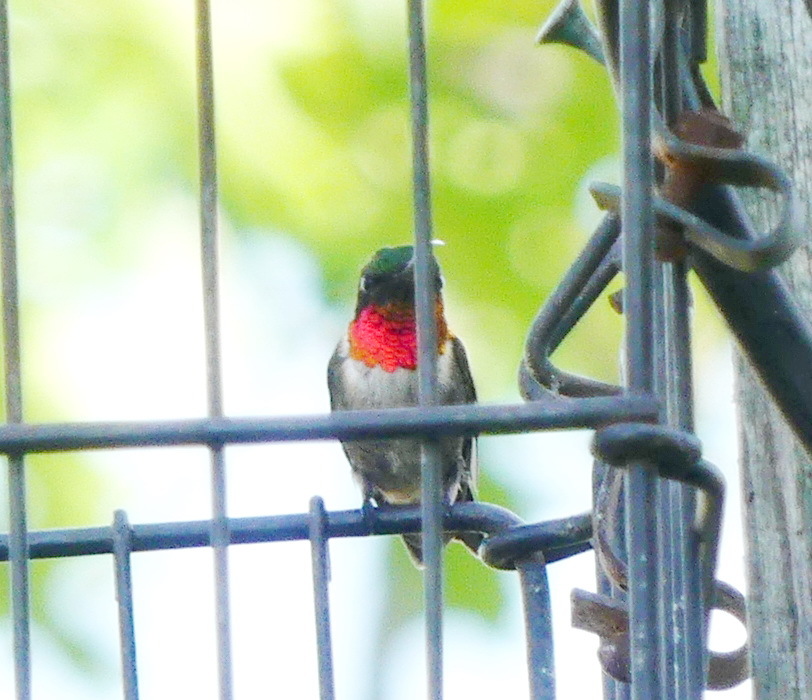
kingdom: Animalia
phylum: Chordata
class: Aves
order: Apodiformes
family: Trochilidae
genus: Archilochus
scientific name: Archilochus colubris
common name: Ruby-throated hummingbird
